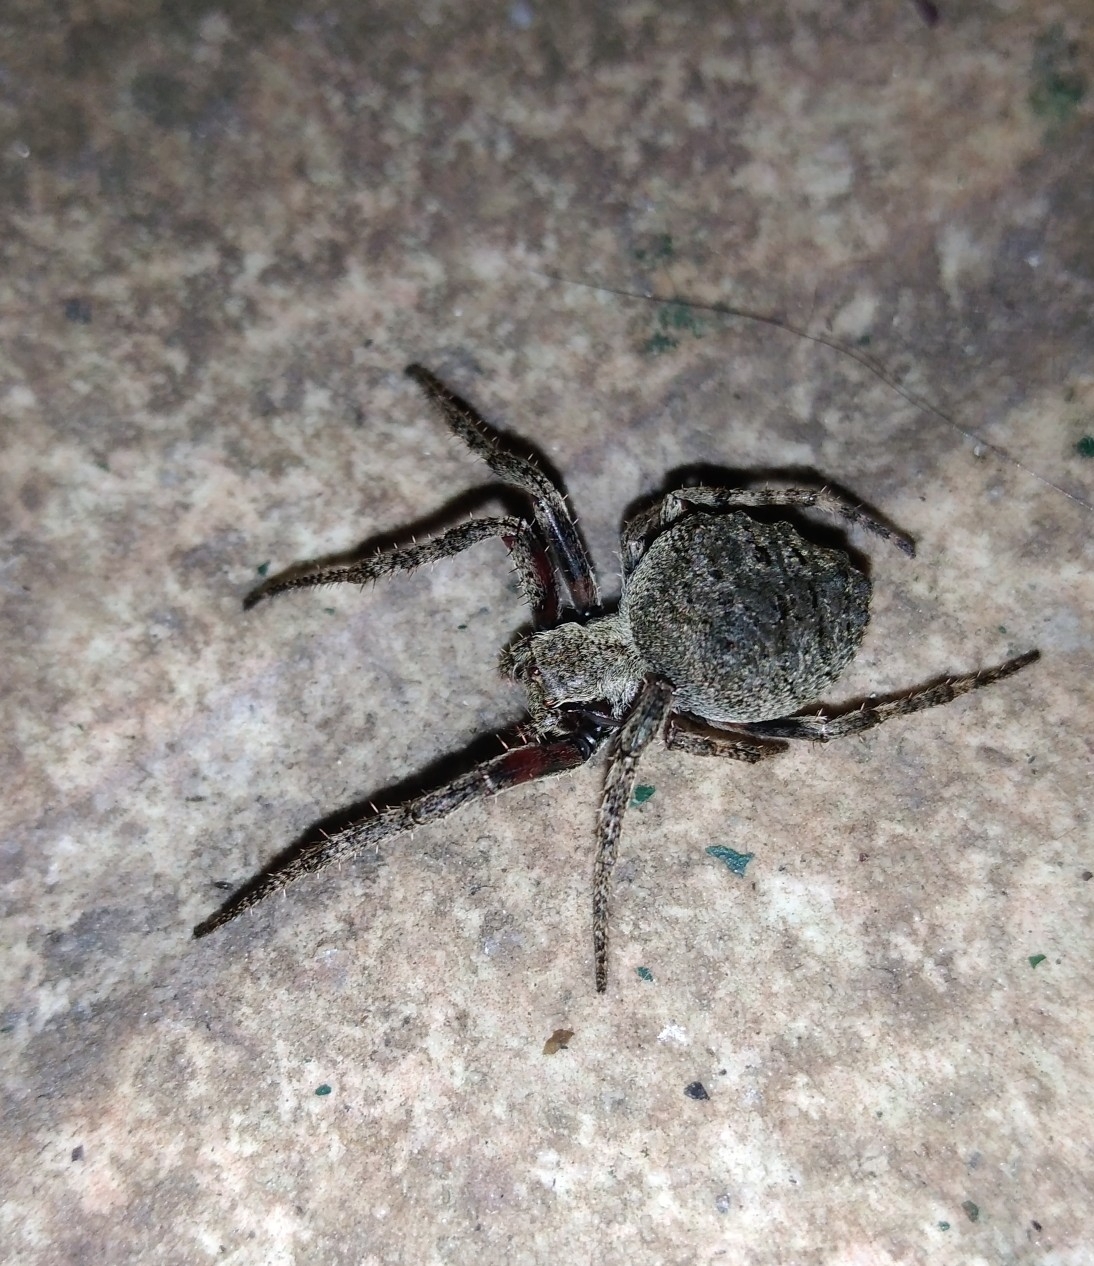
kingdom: Animalia
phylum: Arthropoda
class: Arachnida
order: Araneae
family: Araneidae
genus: Parawixia
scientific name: Parawixia audax
